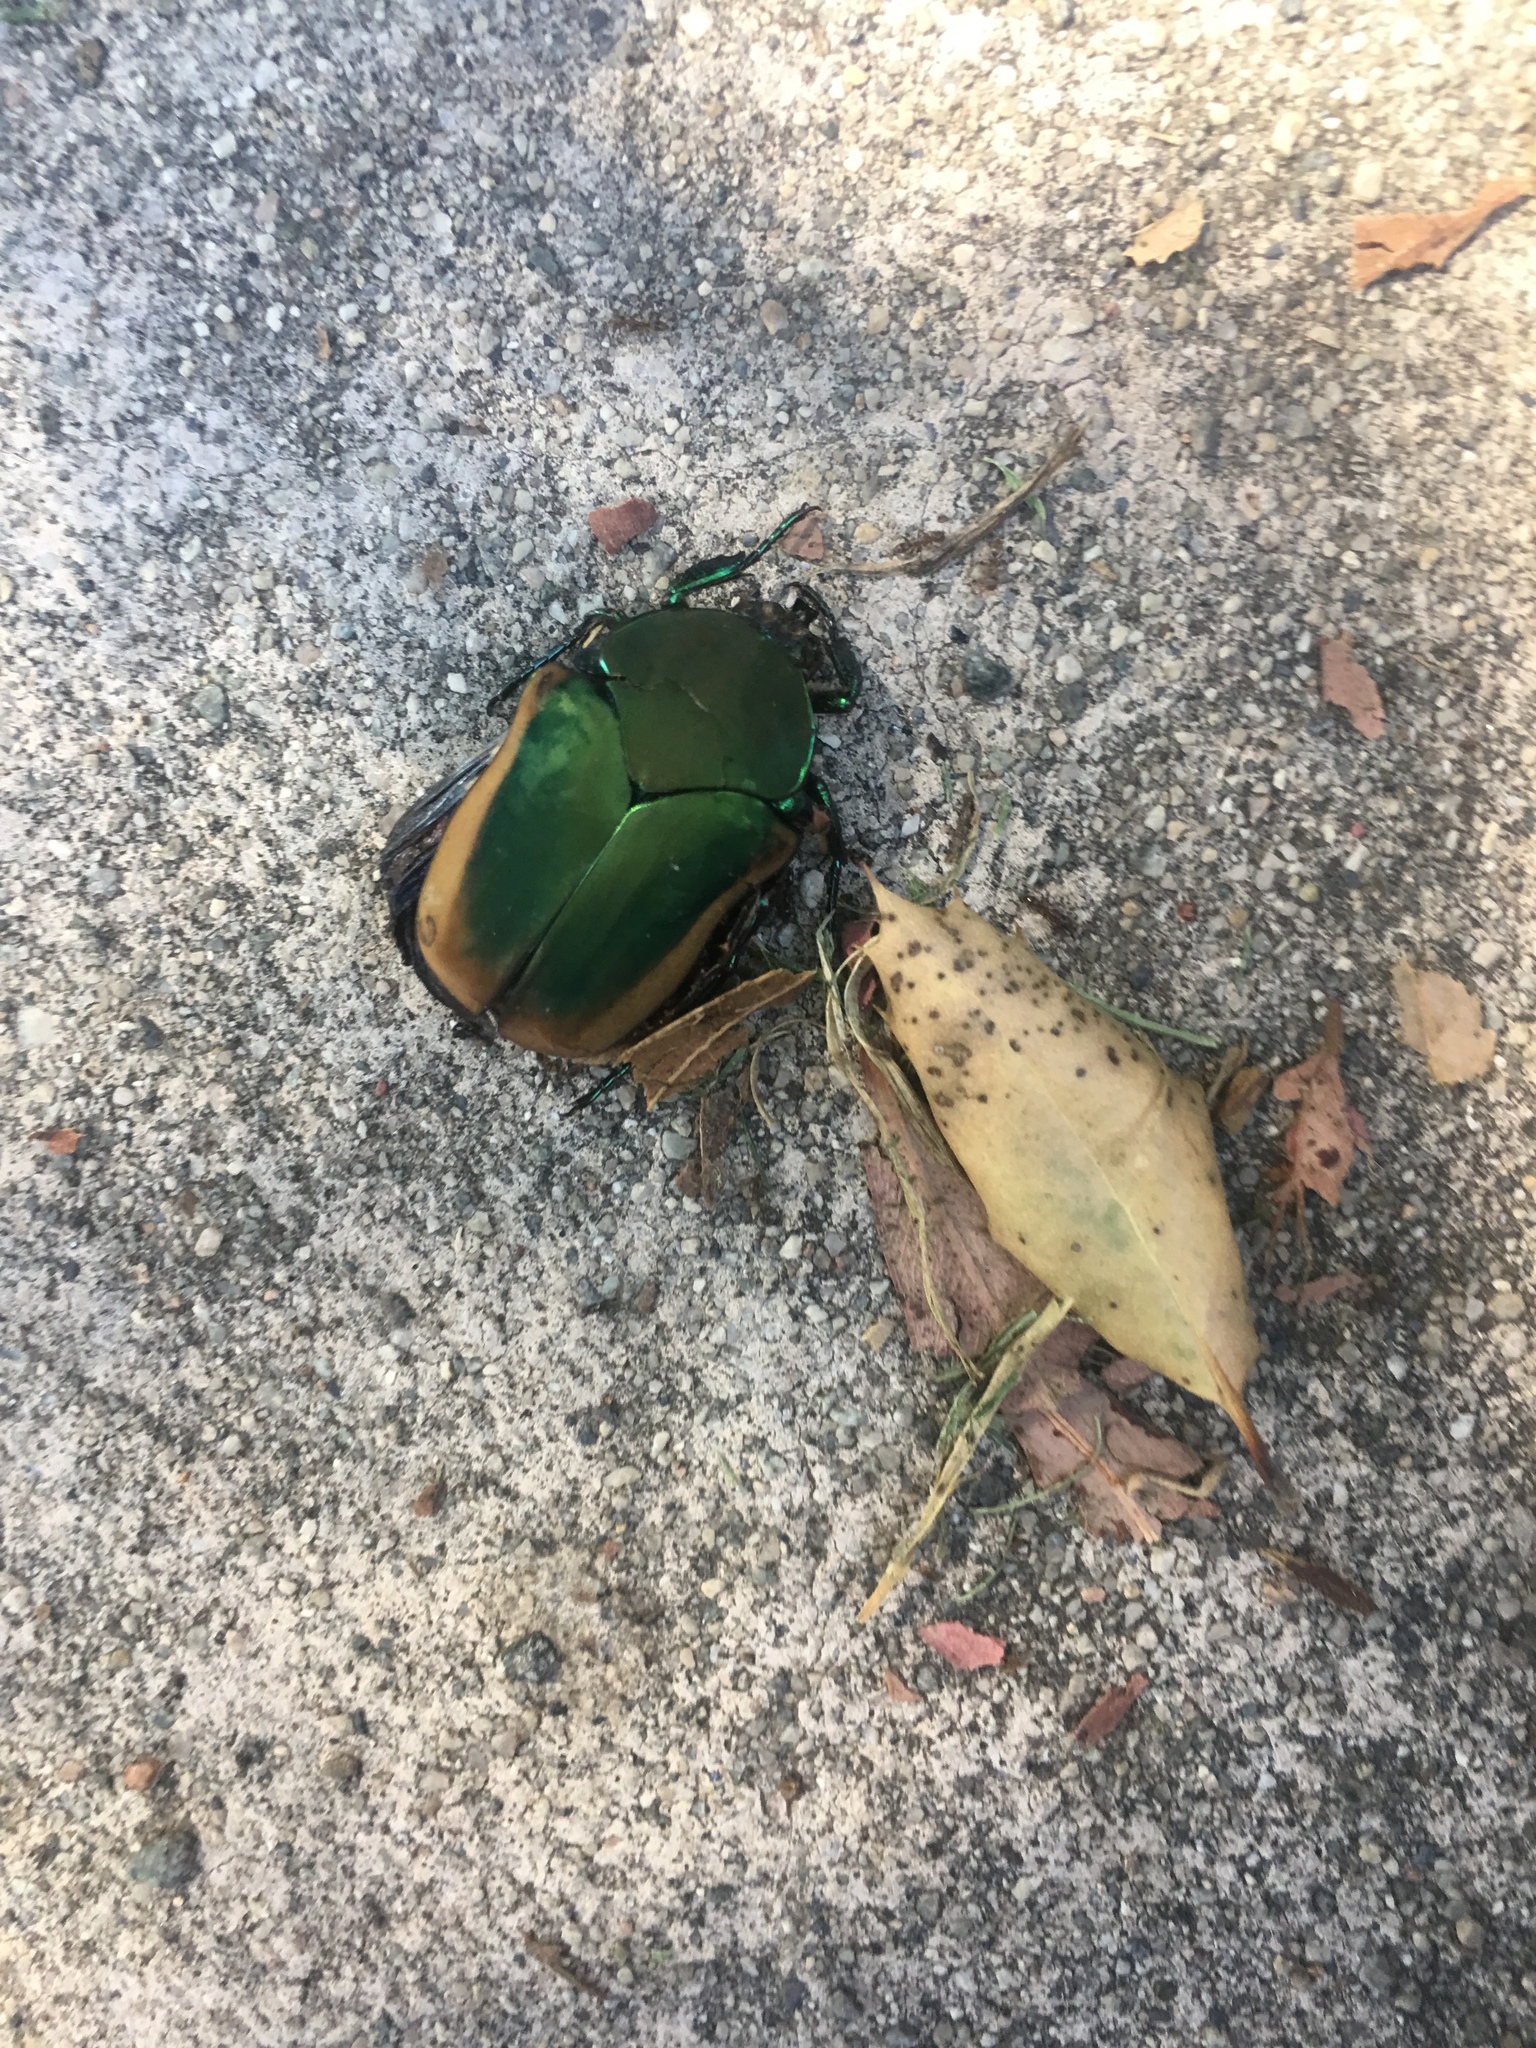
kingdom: Animalia
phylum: Arthropoda
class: Insecta
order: Coleoptera
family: Scarabaeidae
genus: Cotinis
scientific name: Cotinis mutabilis
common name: Figeater beetle
